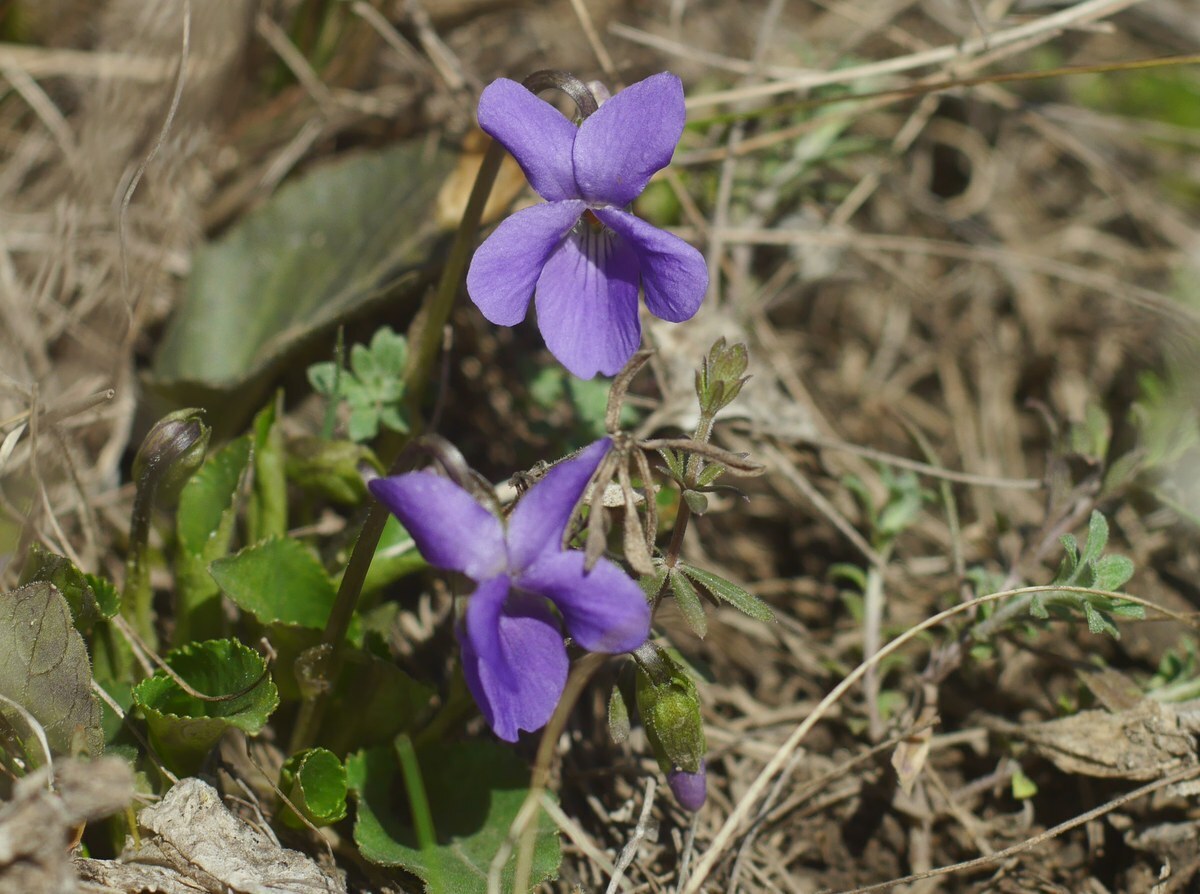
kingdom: Plantae
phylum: Tracheophyta
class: Magnoliopsida
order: Malpighiales
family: Violaceae
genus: Viola
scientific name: Viola ambigua
